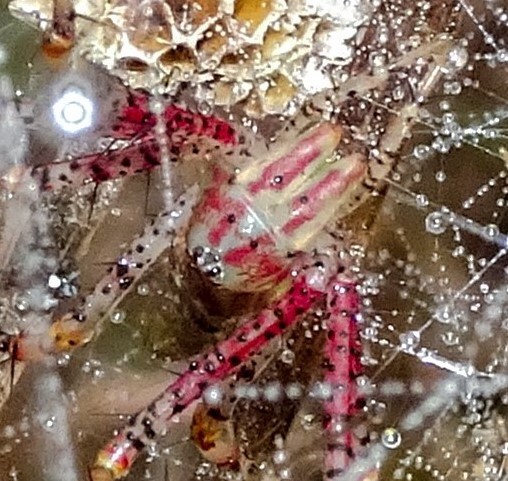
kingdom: Animalia
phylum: Arthropoda
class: Arachnida
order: Araneae
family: Oxyopidae
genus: Peucetia
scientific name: Peucetia viridans
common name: Lynx spiders
